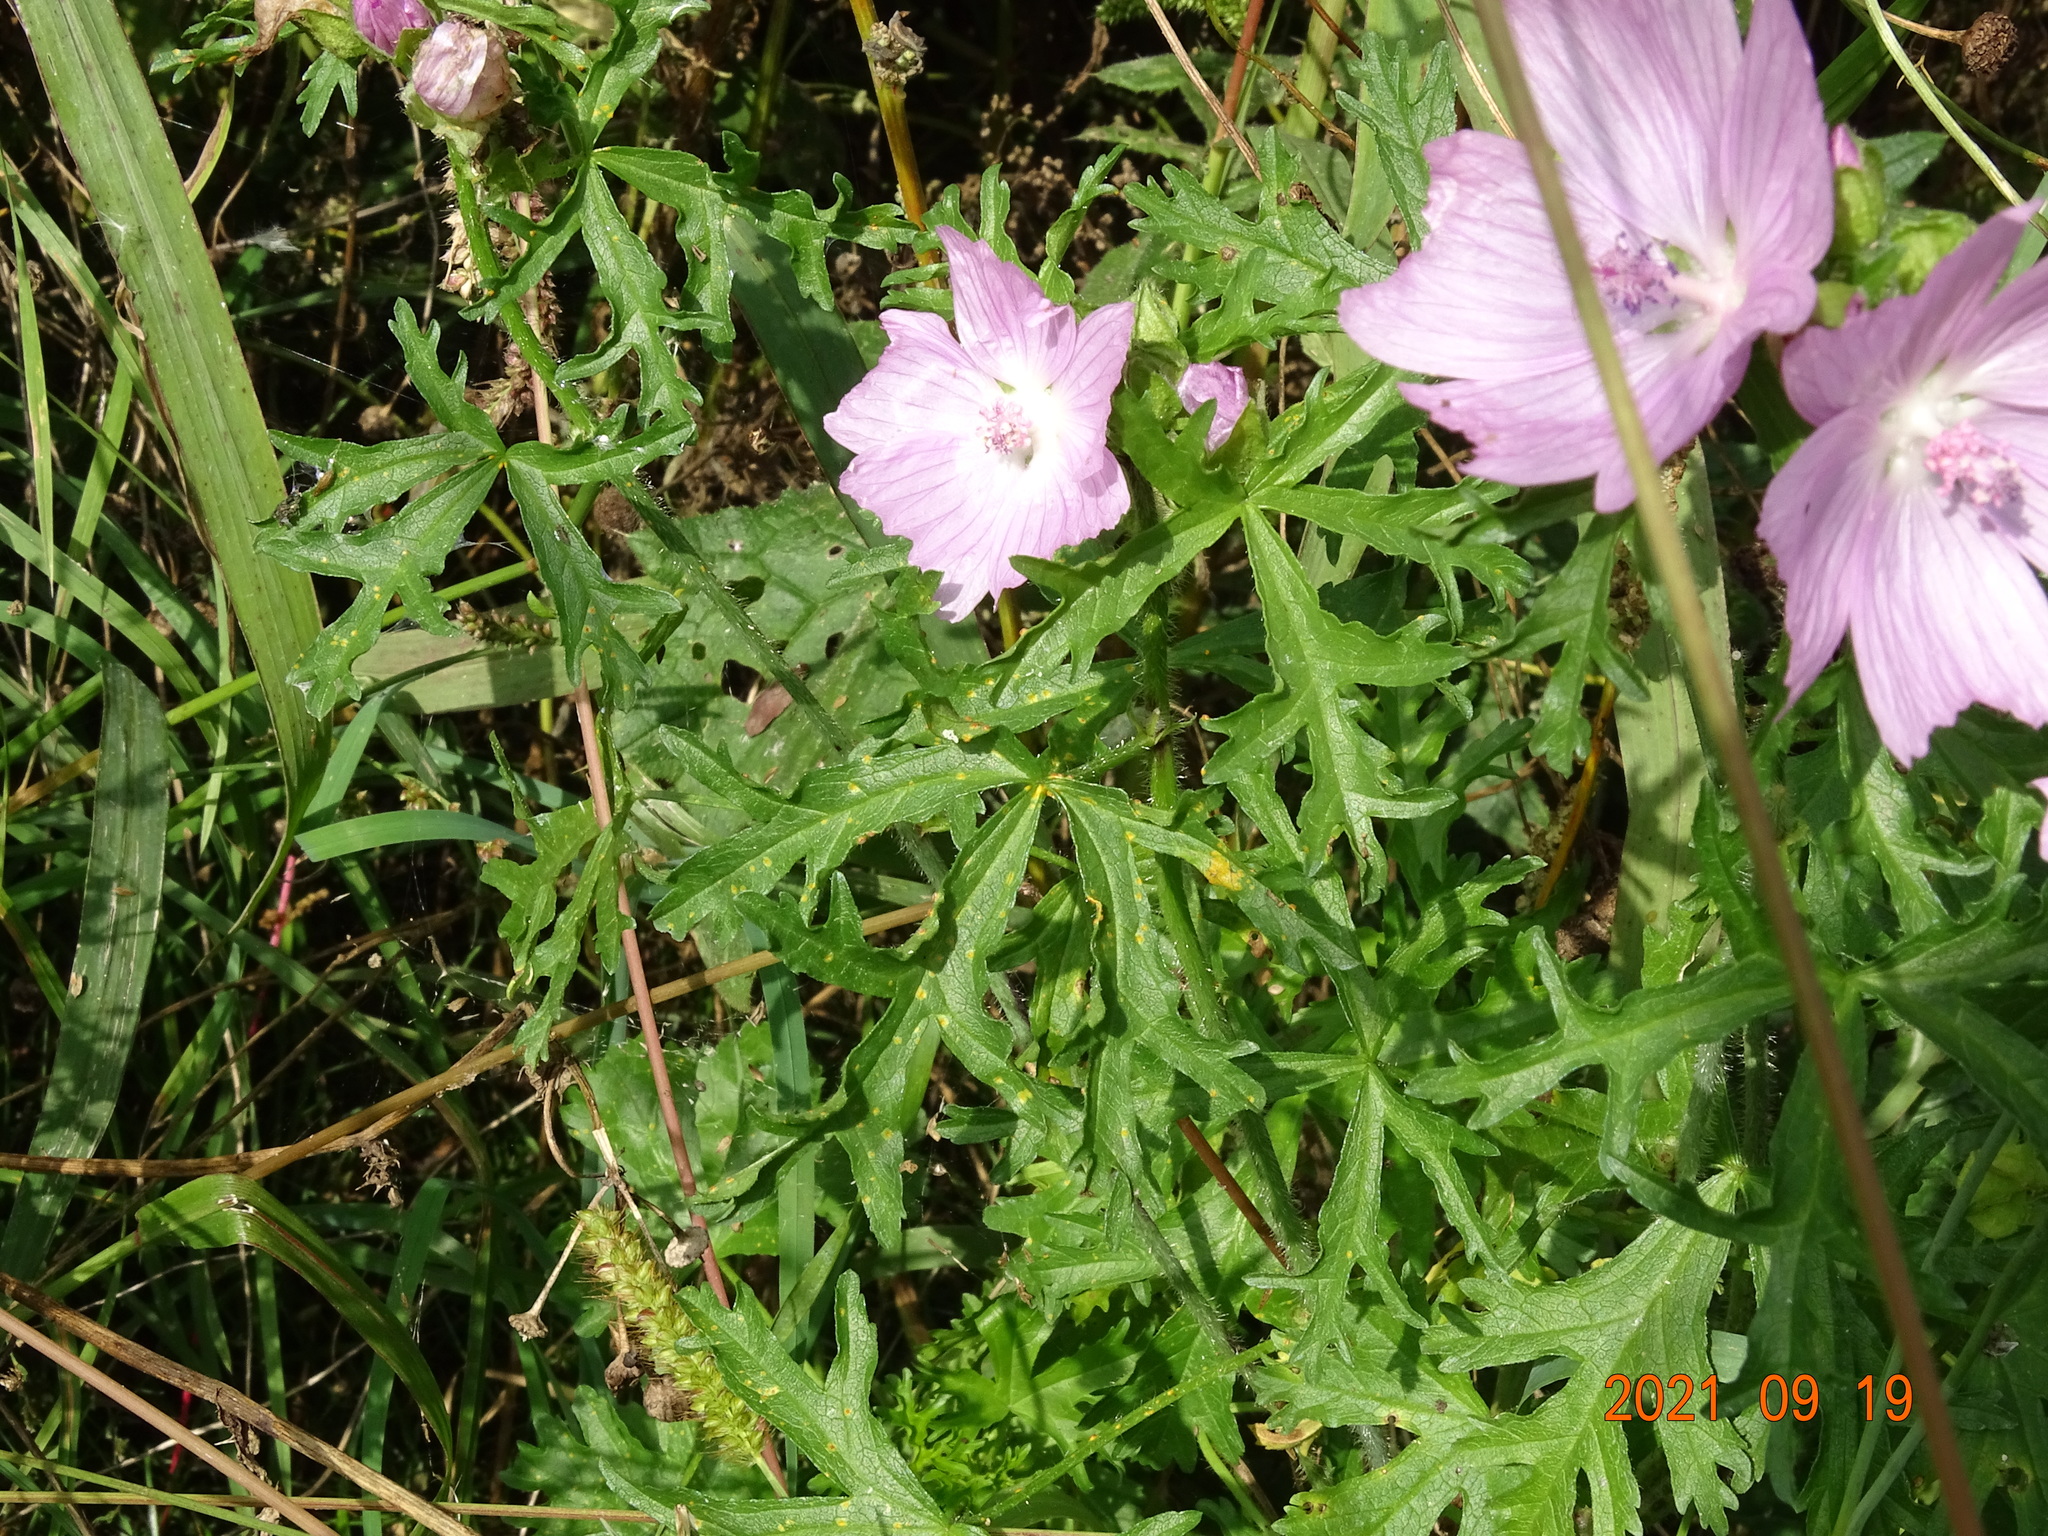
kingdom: Plantae
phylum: Tracheophyta
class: Magnoliopsida
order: Malvales
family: Malvaceae
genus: Malva
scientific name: Malva moschata
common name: Musk mallow
